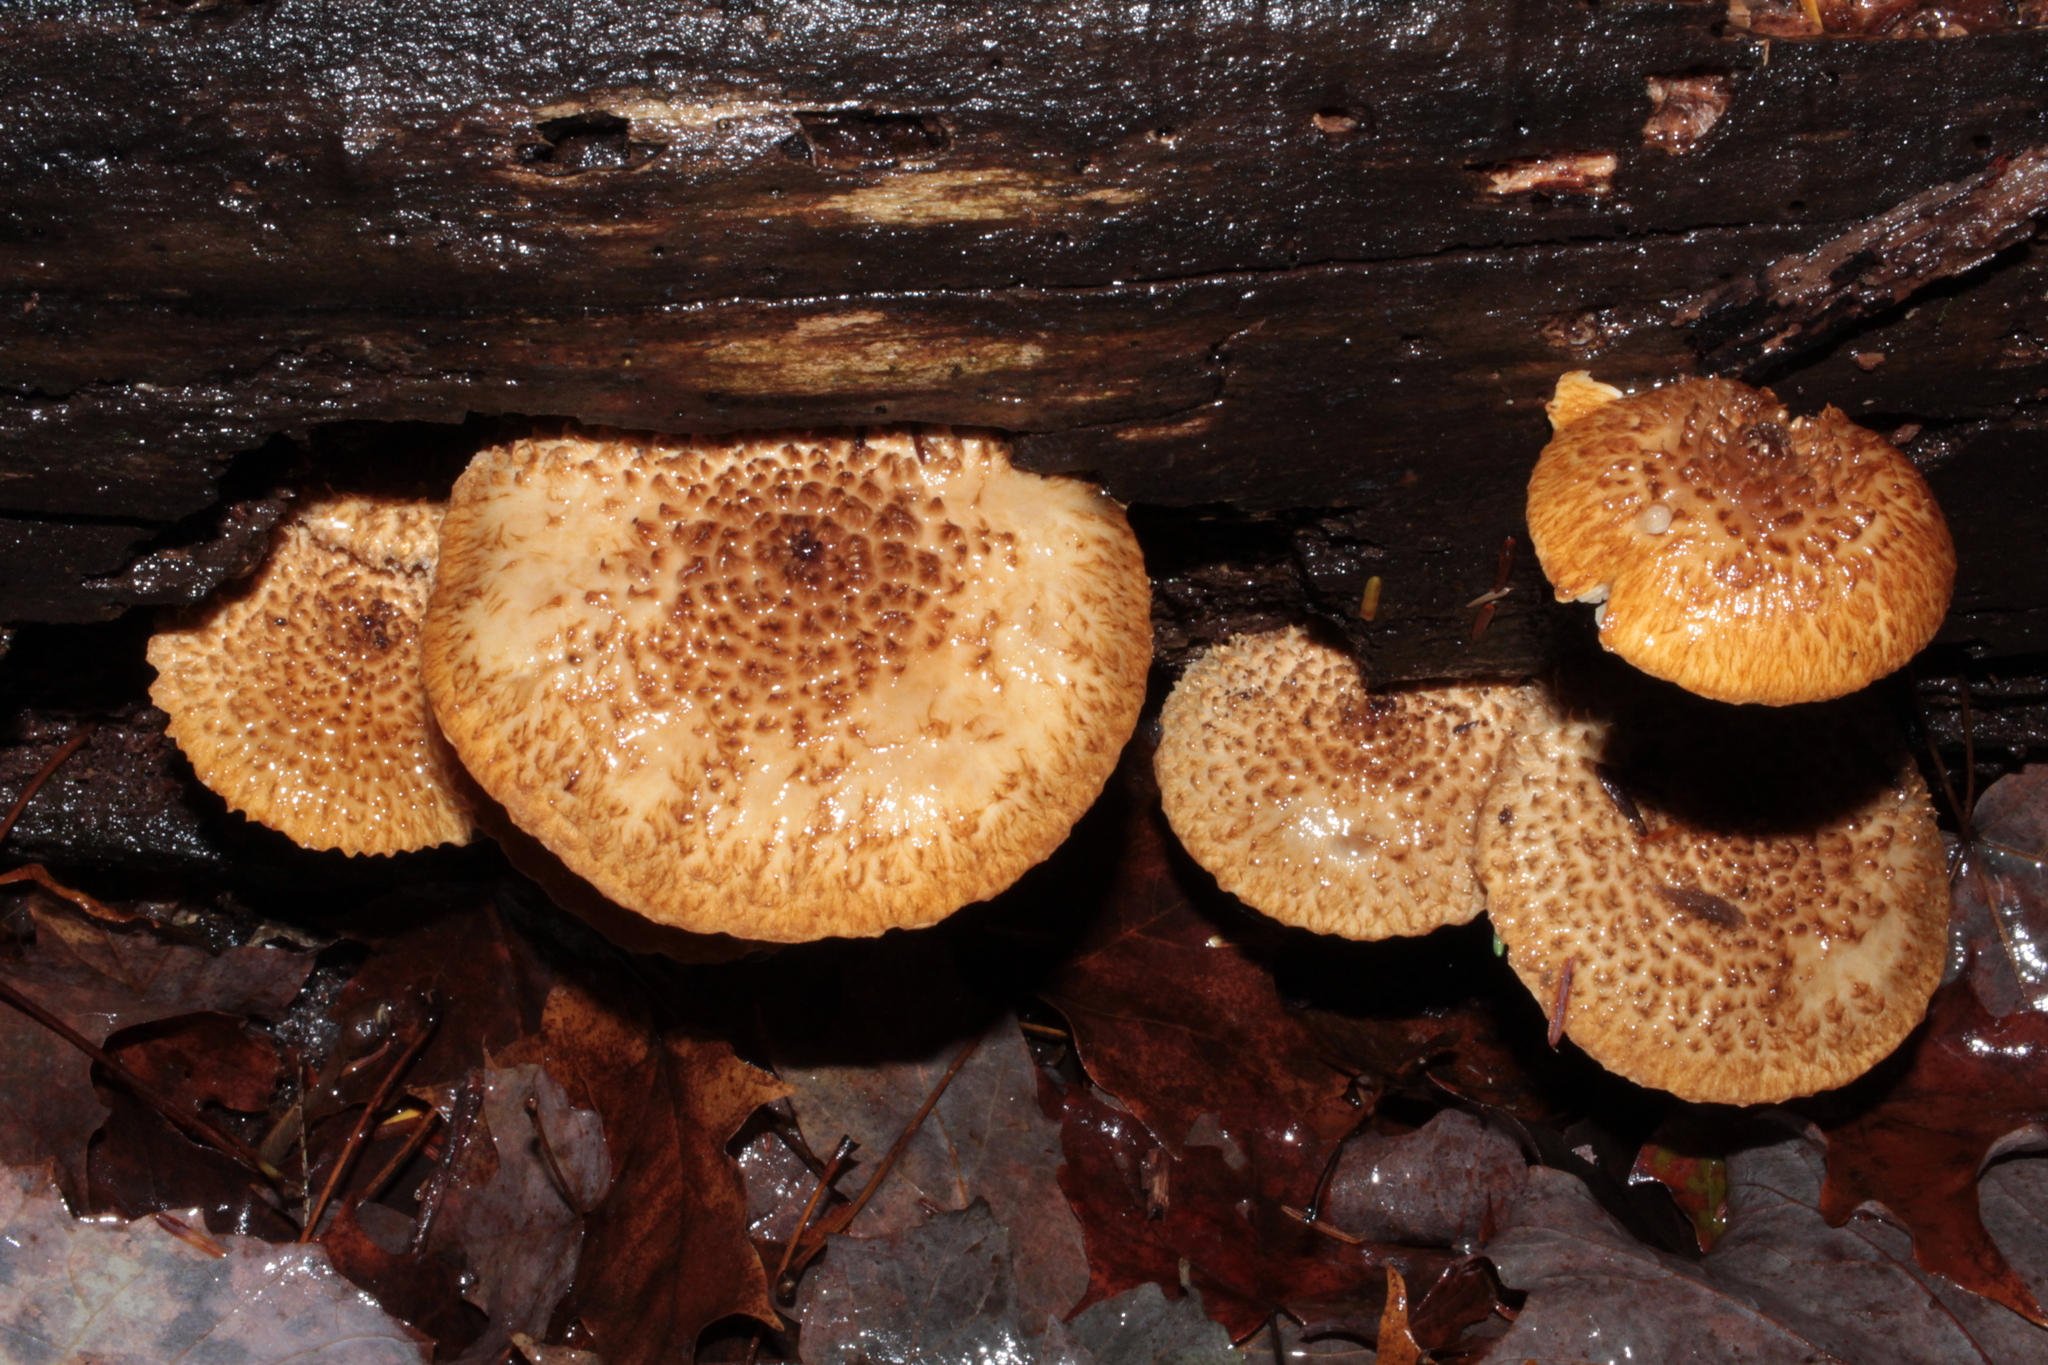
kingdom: Fungi
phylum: Basidiomycota
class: Agaricomycetes
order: Agaricales
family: Agaricaceae
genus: Leucopholiota
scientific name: Leucopholiota decorosa
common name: Decorated pholiota
